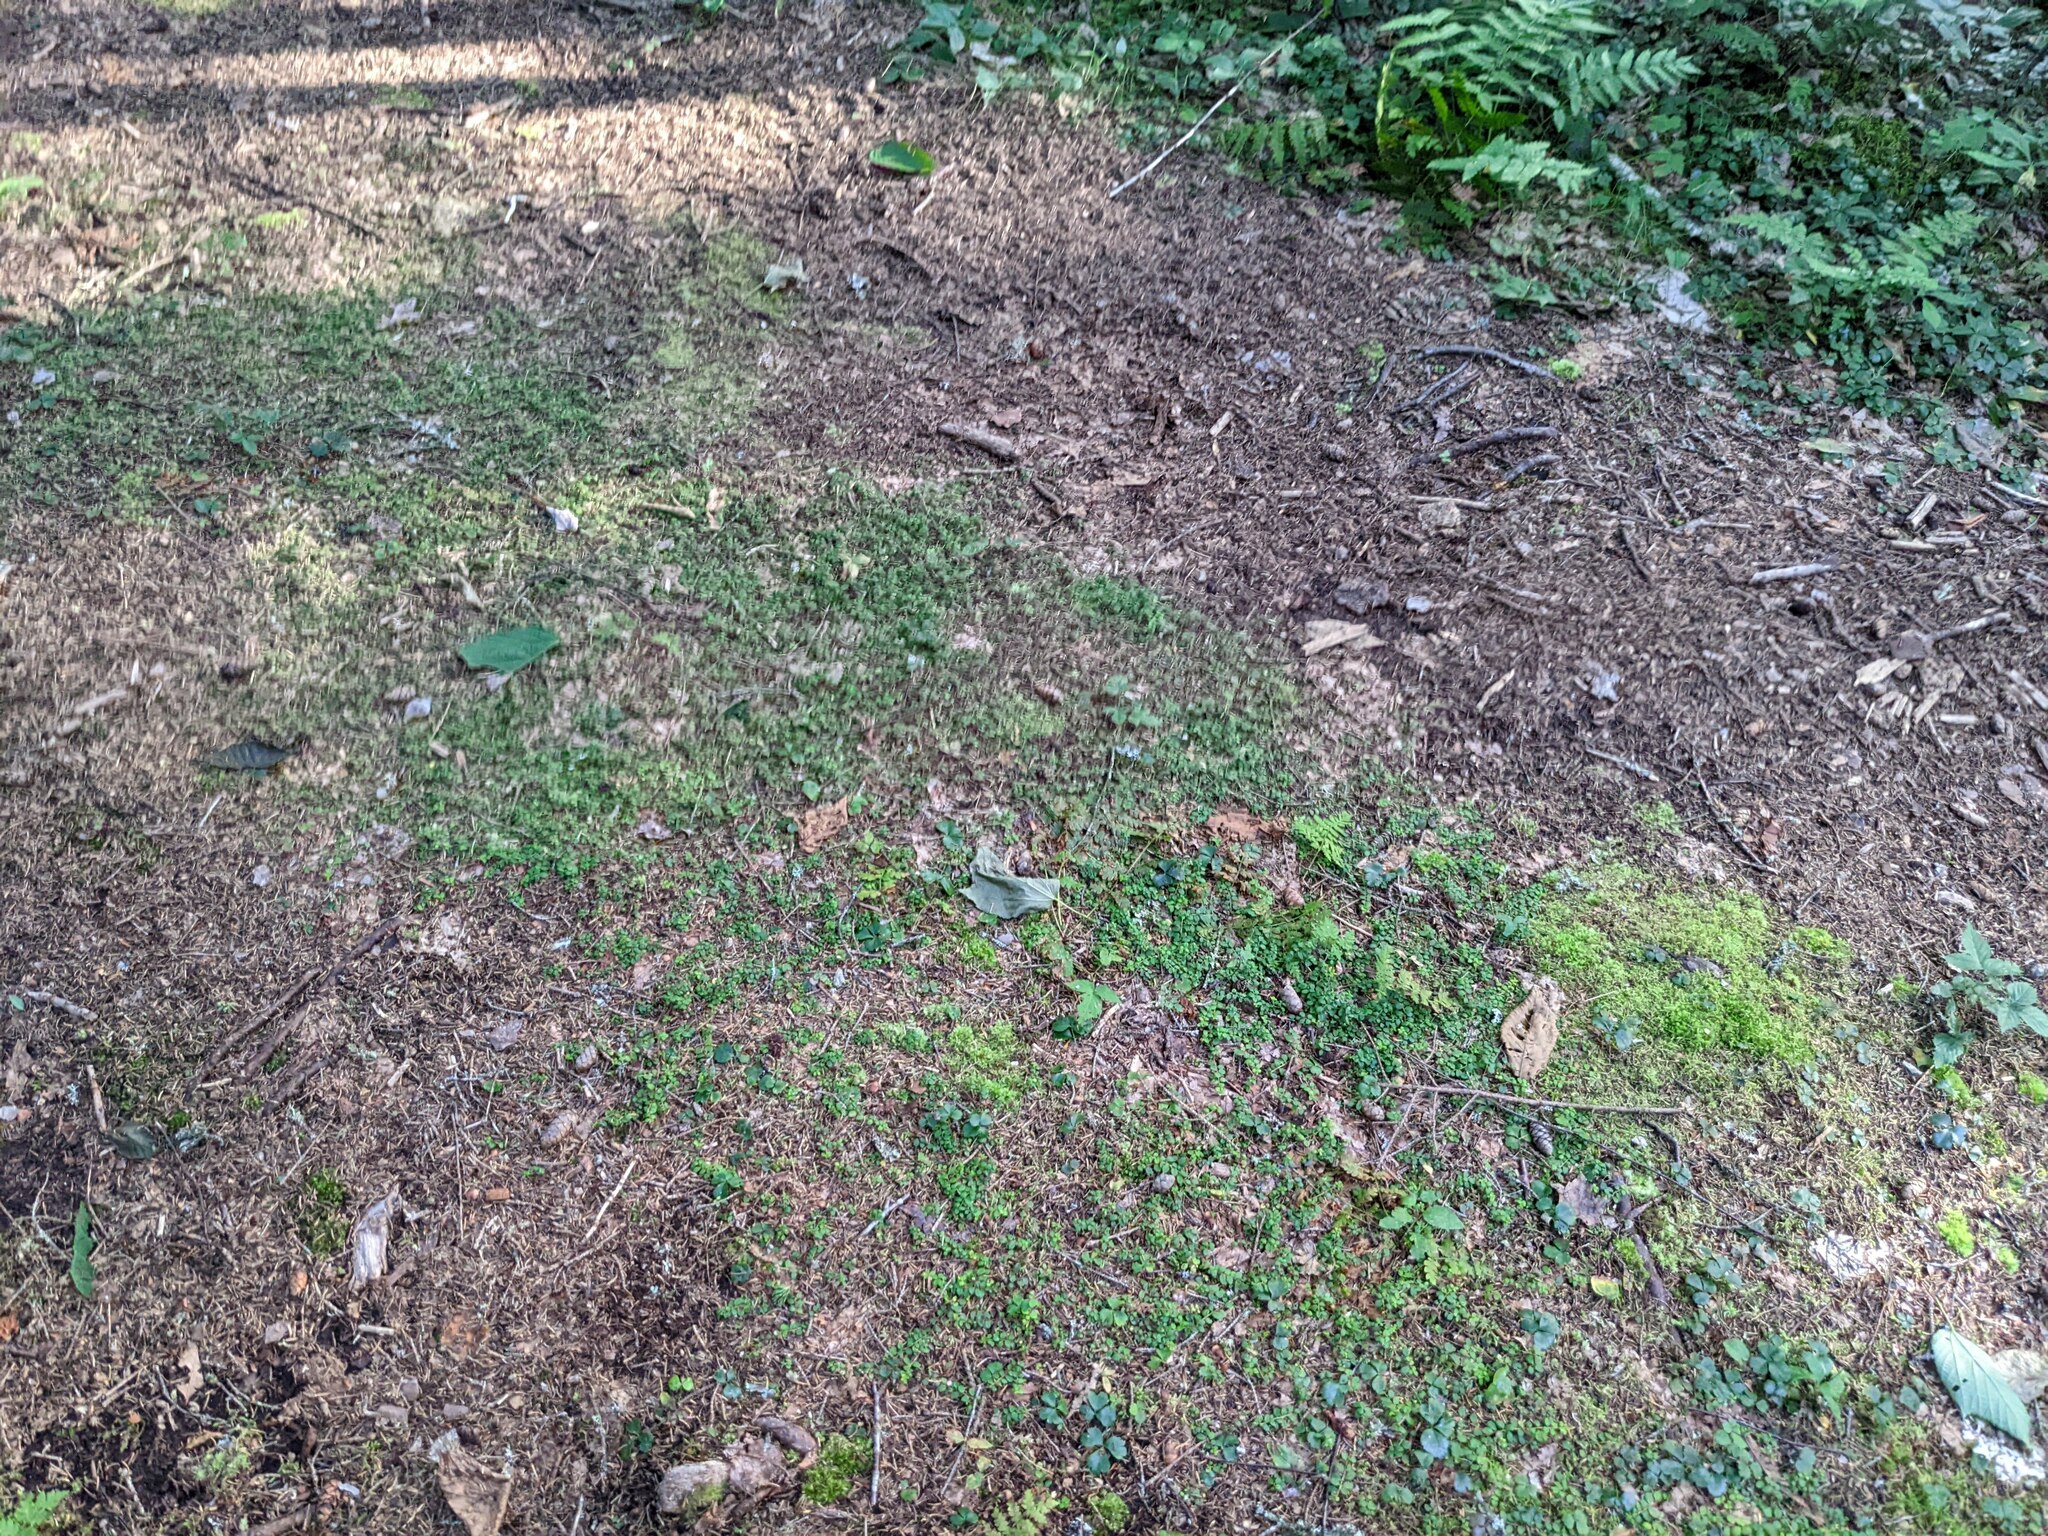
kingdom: Plantae
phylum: Tracheophyta
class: Magnoliopsida
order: Dipsacales
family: Caprifoliaceae
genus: Linnaea
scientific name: Linnaea borealis
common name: Twinflower
